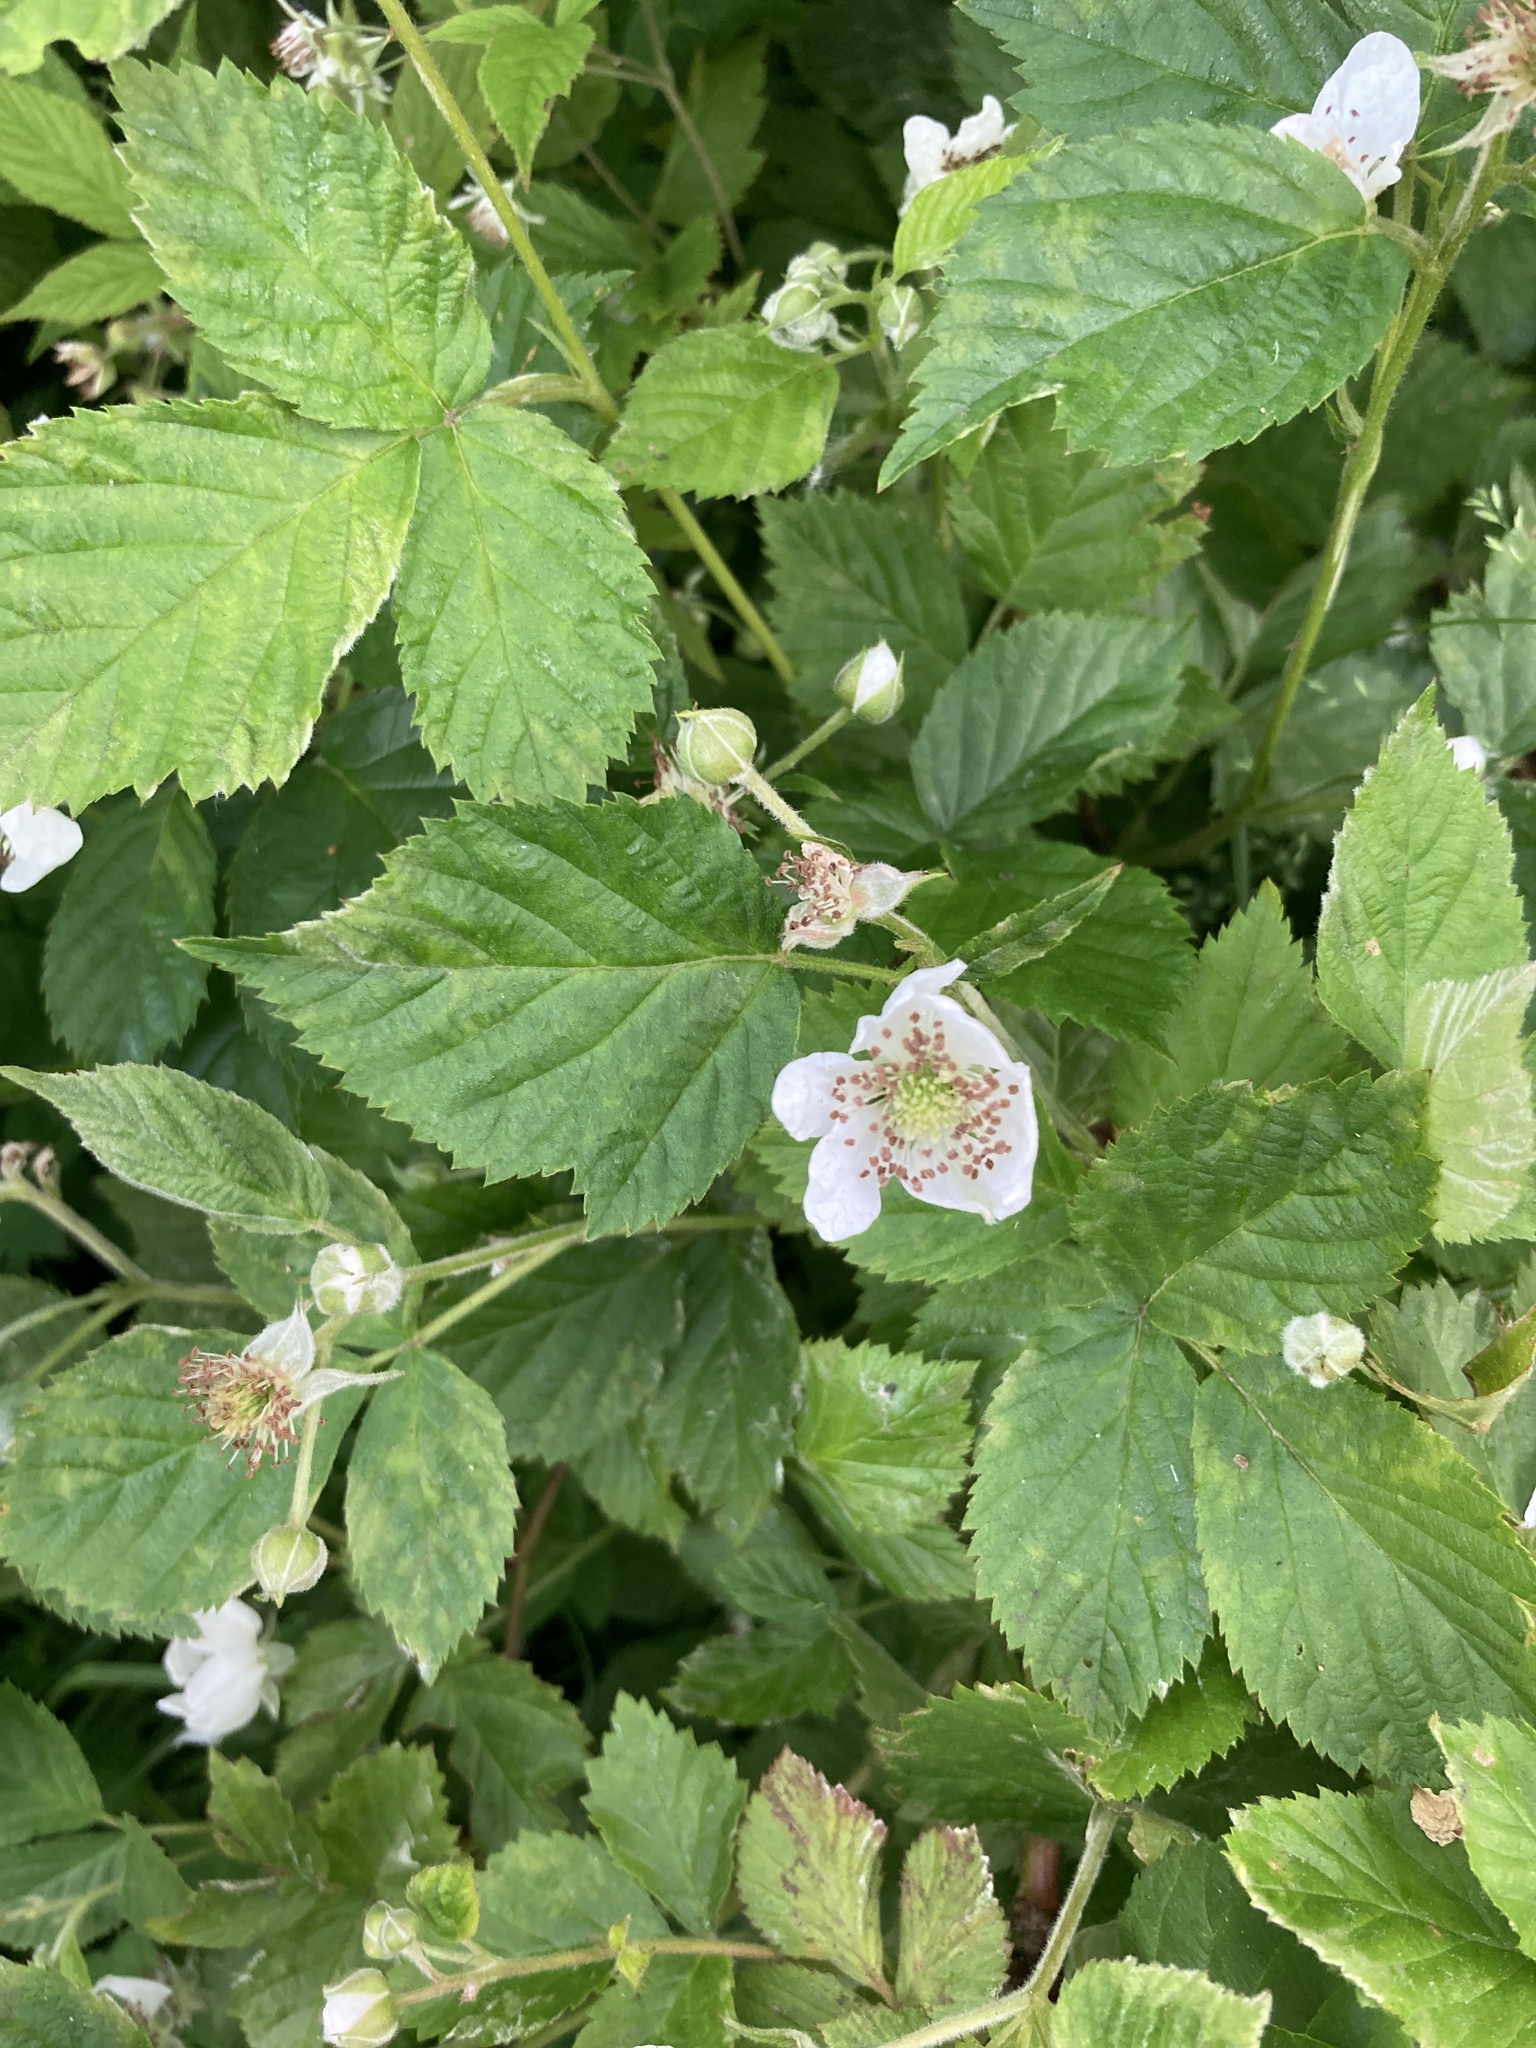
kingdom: Plantae
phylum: Tracheophyta
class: Magnoliopsida
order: Rosales
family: Rosaceae
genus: Rubus
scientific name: Rubus polonicus
